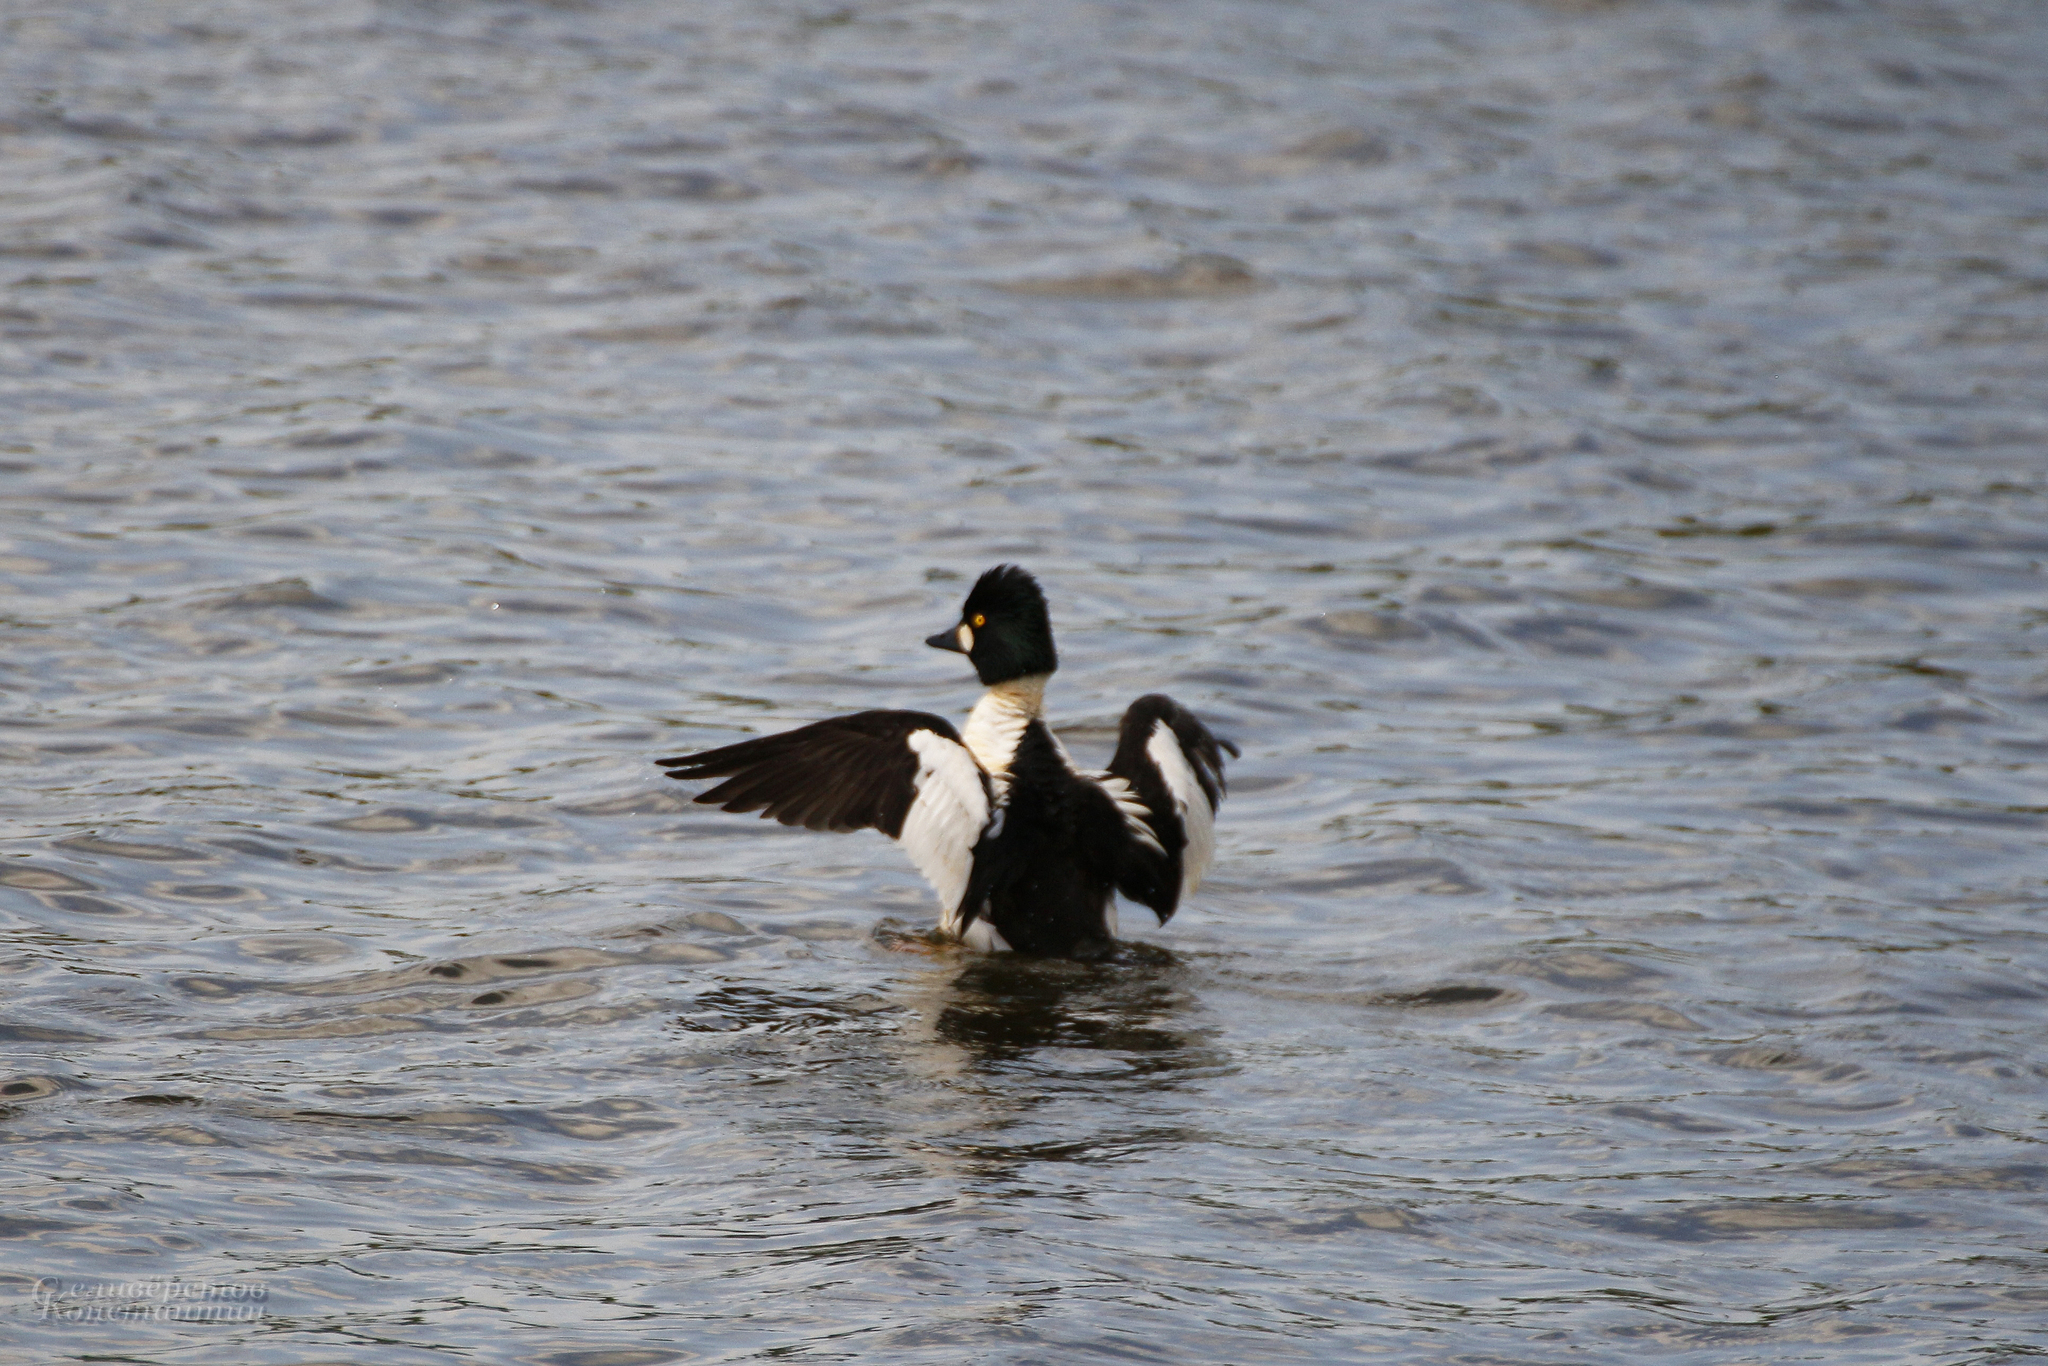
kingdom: Animalia
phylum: Chordata
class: Aves
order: Anseriformes
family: Anatidae
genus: Bucephala
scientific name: Bucephala clangula
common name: Common goldeneye
